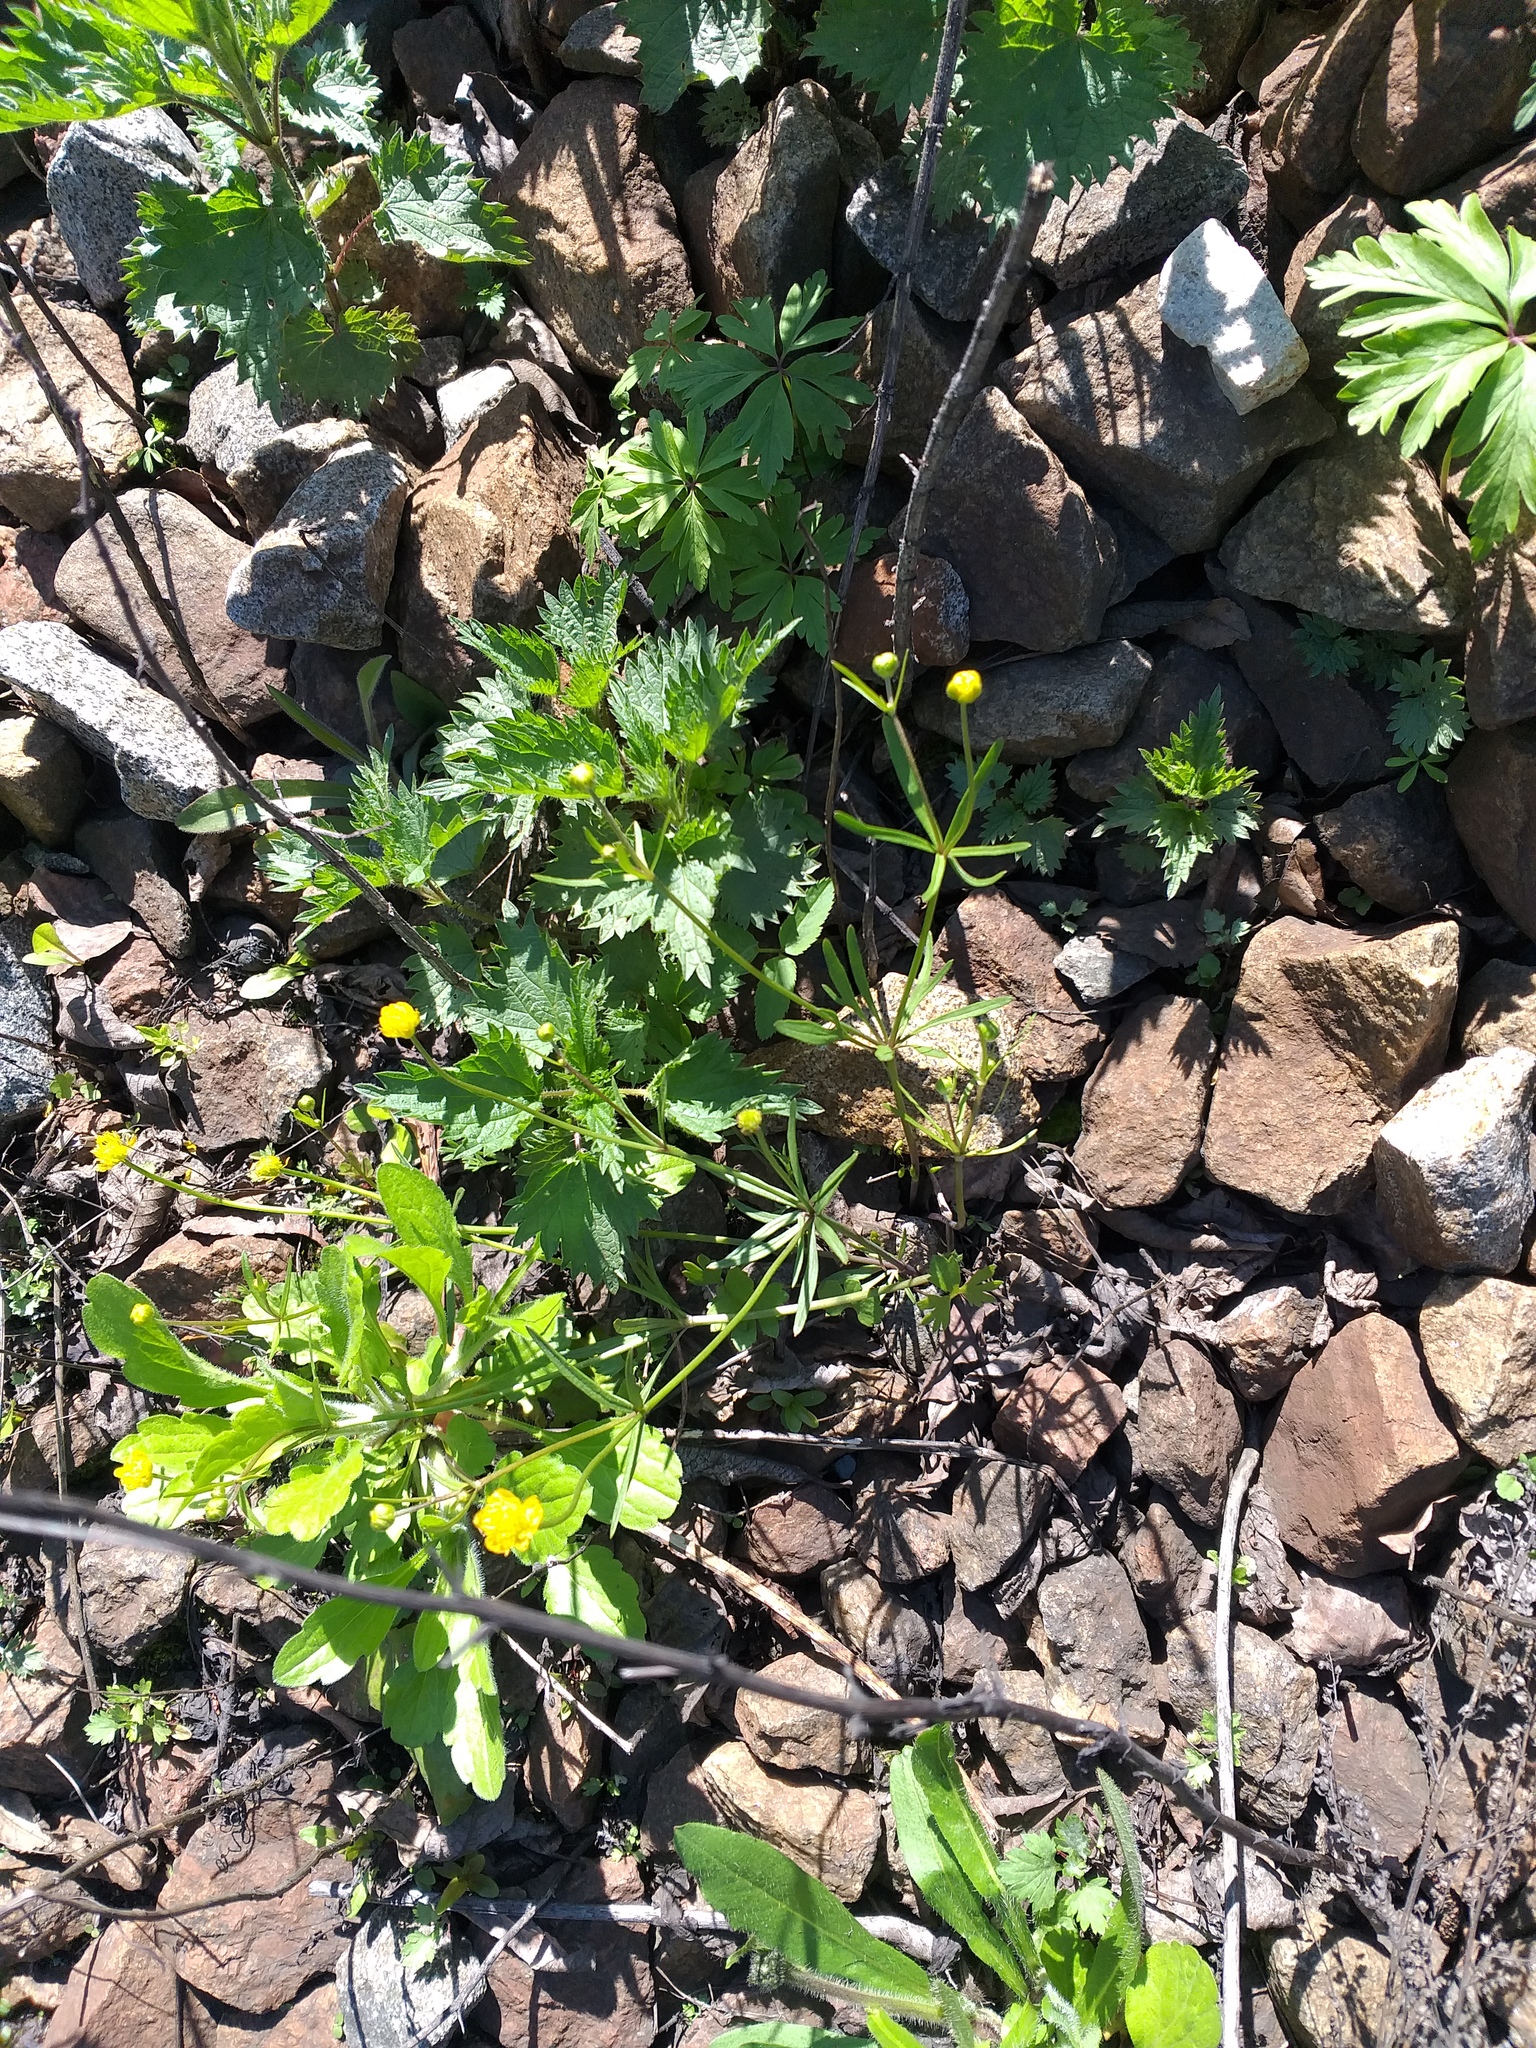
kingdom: Plantae
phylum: Tracheophyta
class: Magnoliopsida
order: Ranunculales
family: Ranunculaceae
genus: Ranunculus
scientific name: Ranunculus auricomus
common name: Goldilocks buttercup
